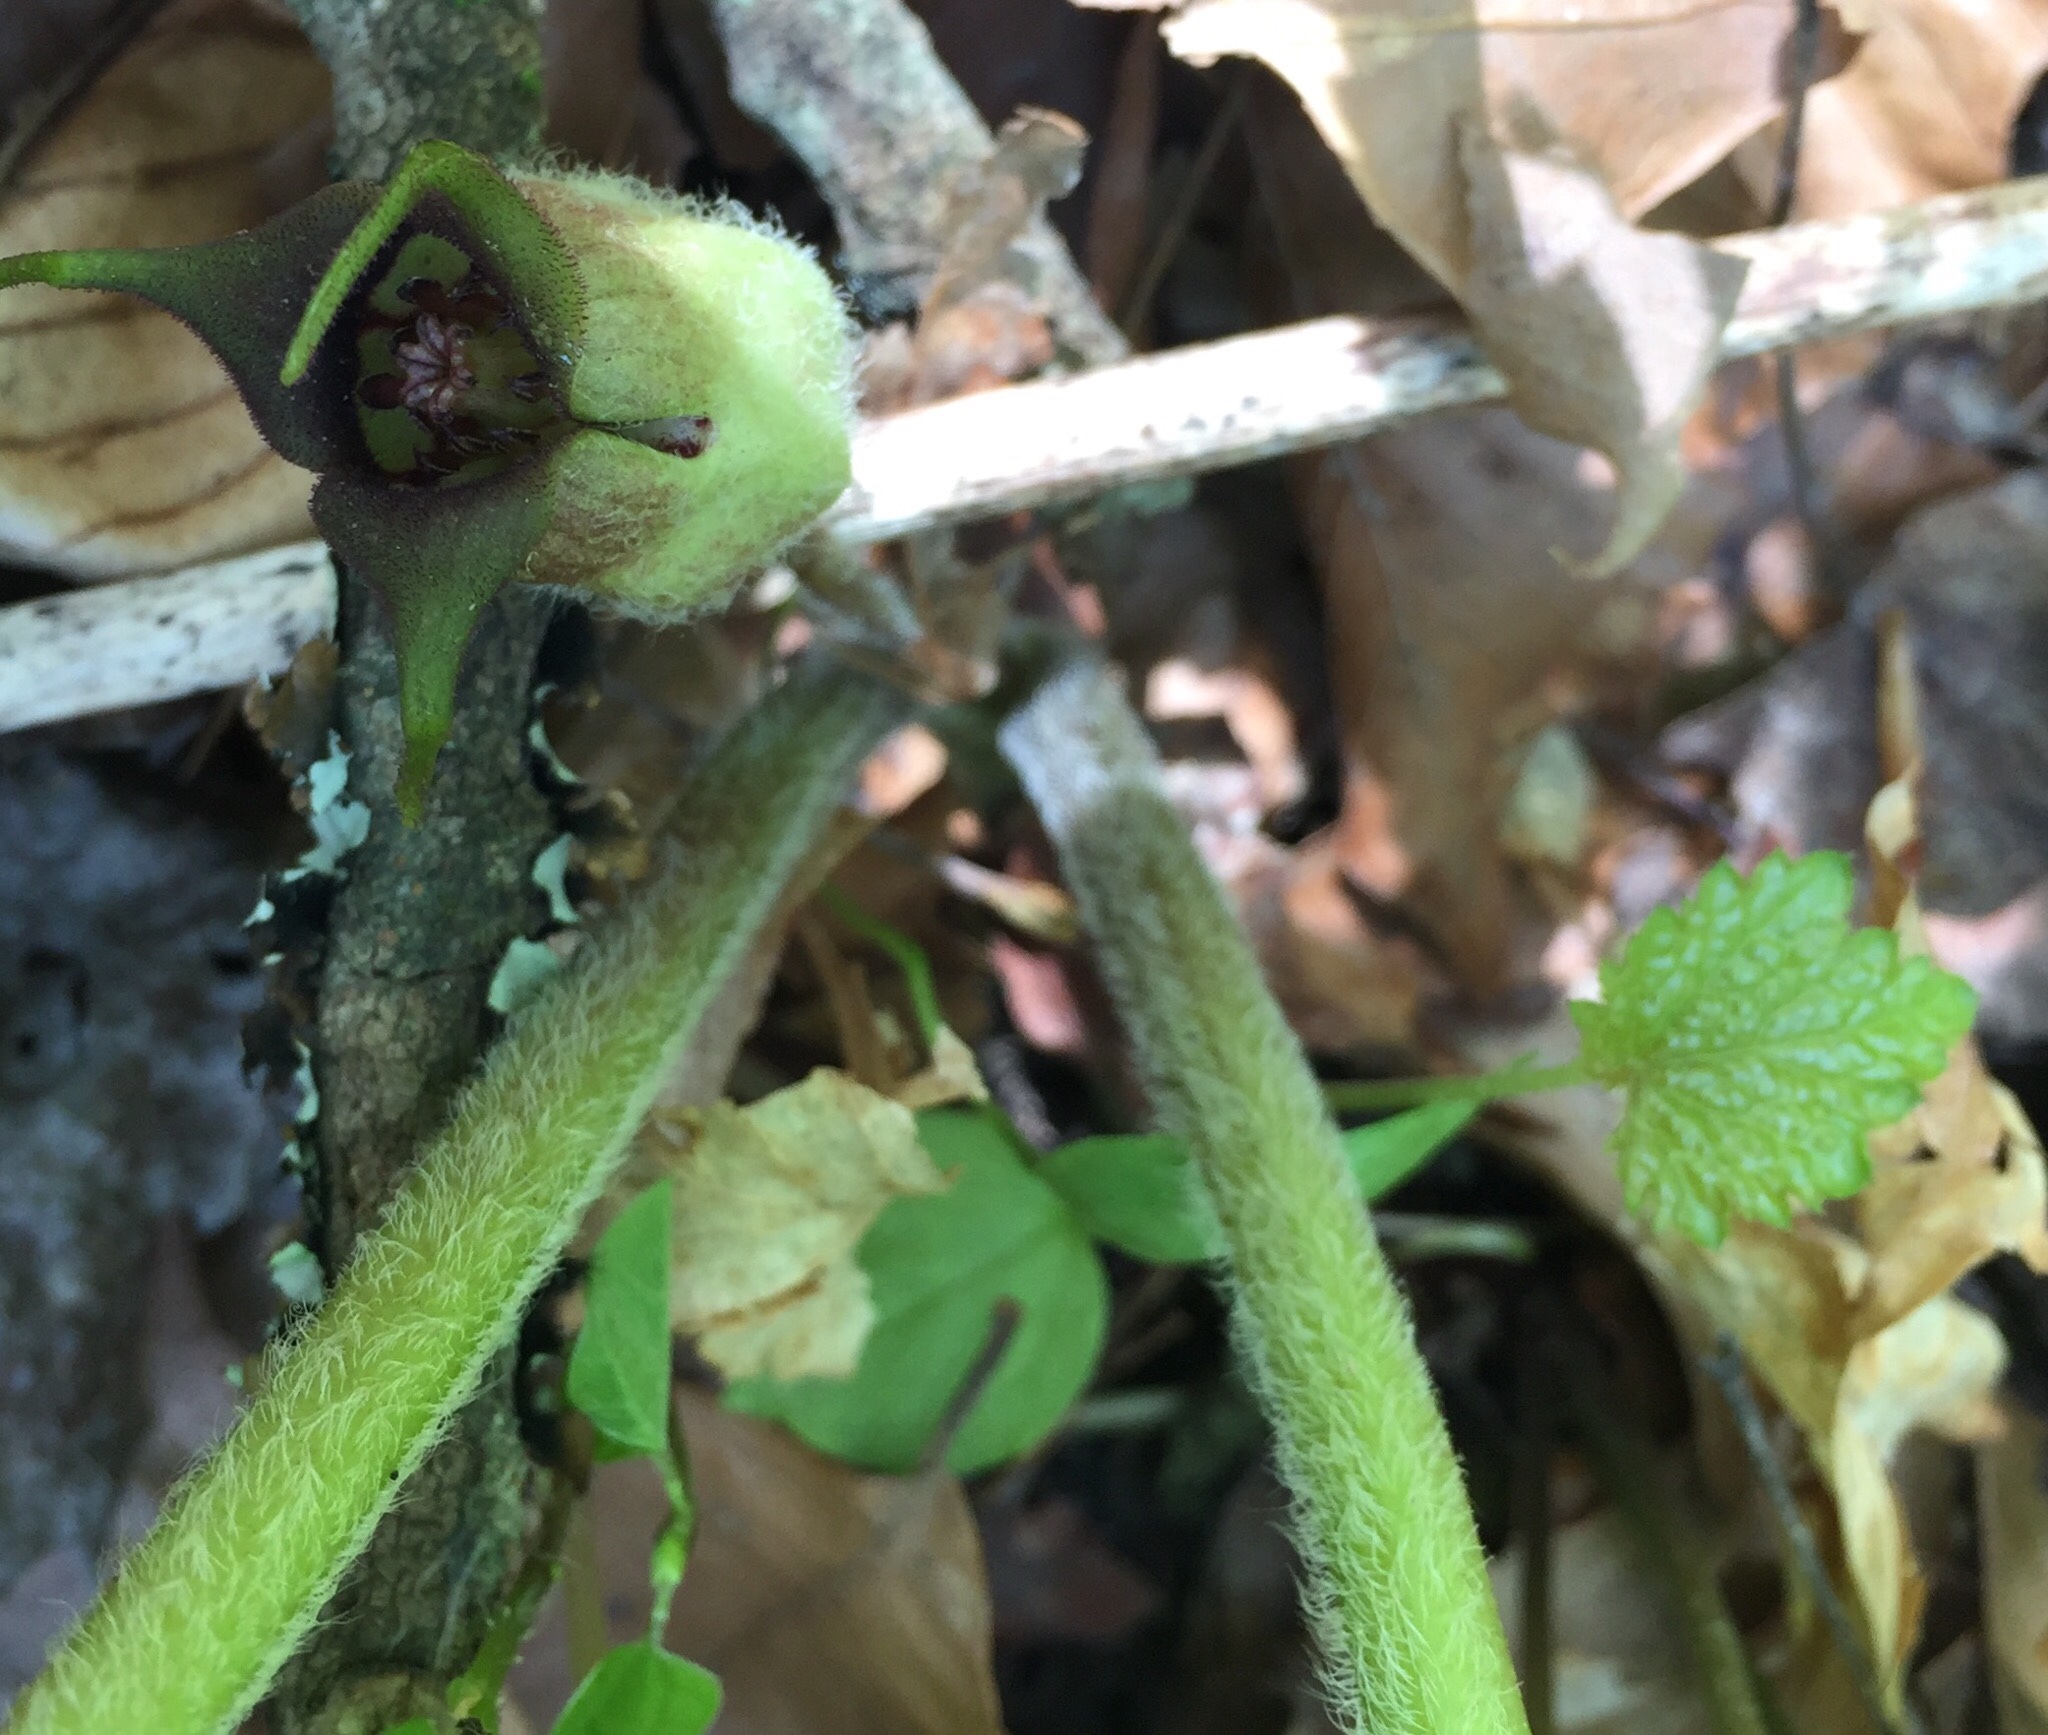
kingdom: Plantae
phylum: Tracheophyta
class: Magnoliopsida
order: Piperales
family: Aristolochiaceae
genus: Asarum
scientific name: Asarum canadense
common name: Wild ginger
